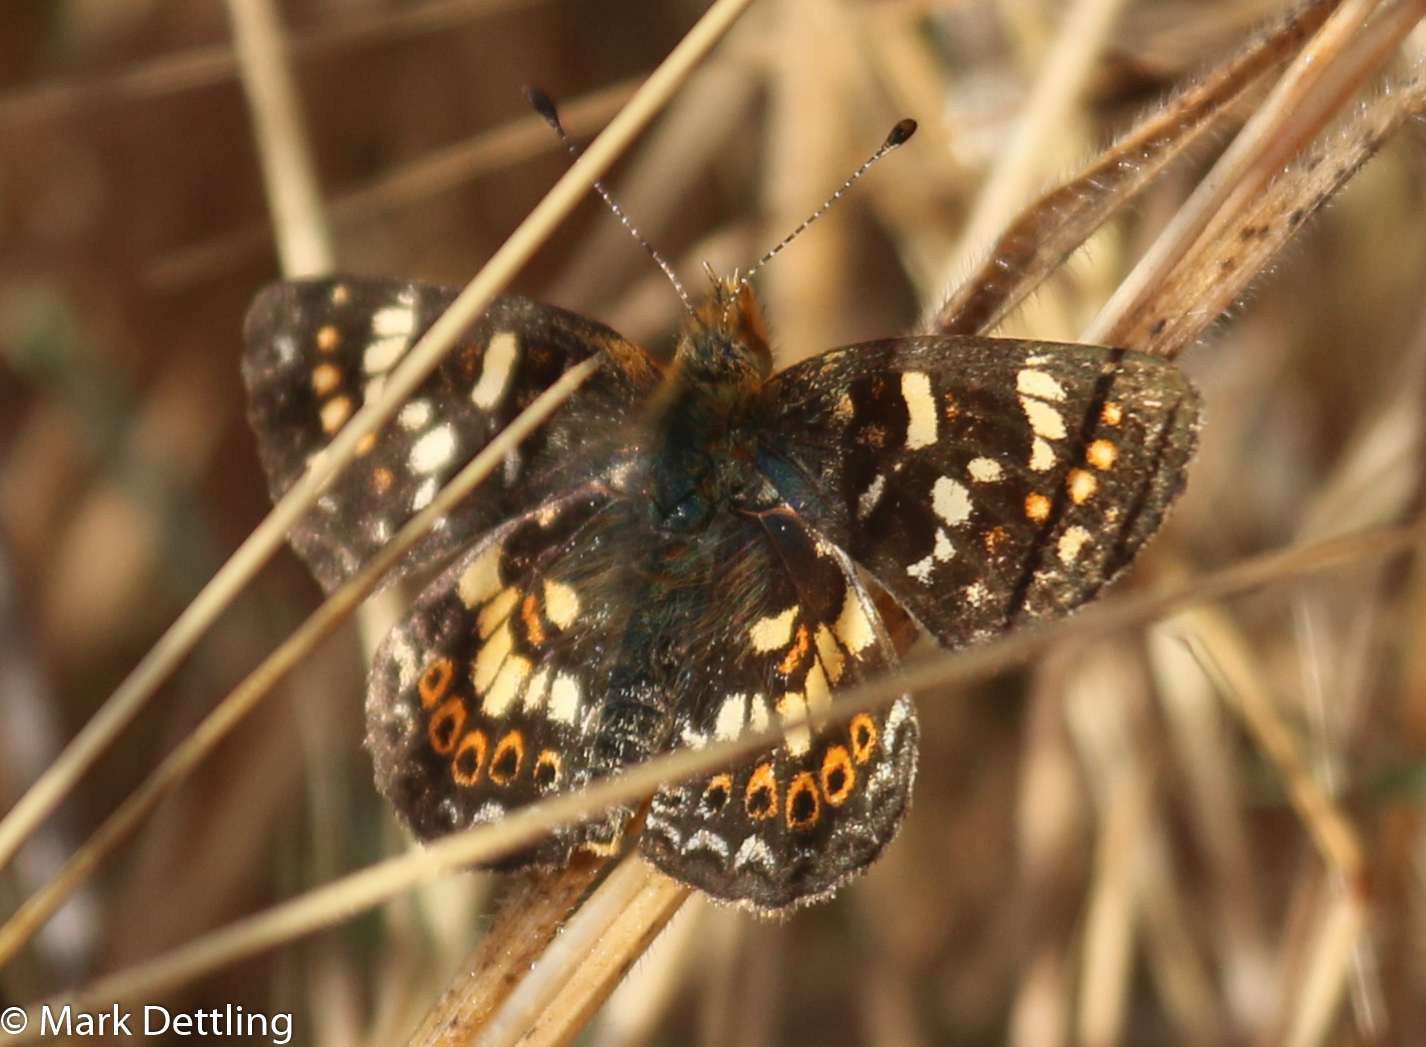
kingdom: Animalia
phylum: Arthropoda
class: Insecta
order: Lepidoptera
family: Nymphalidae
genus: Phyciodes
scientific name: Phyciodes tharos
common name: Pearl crescent
